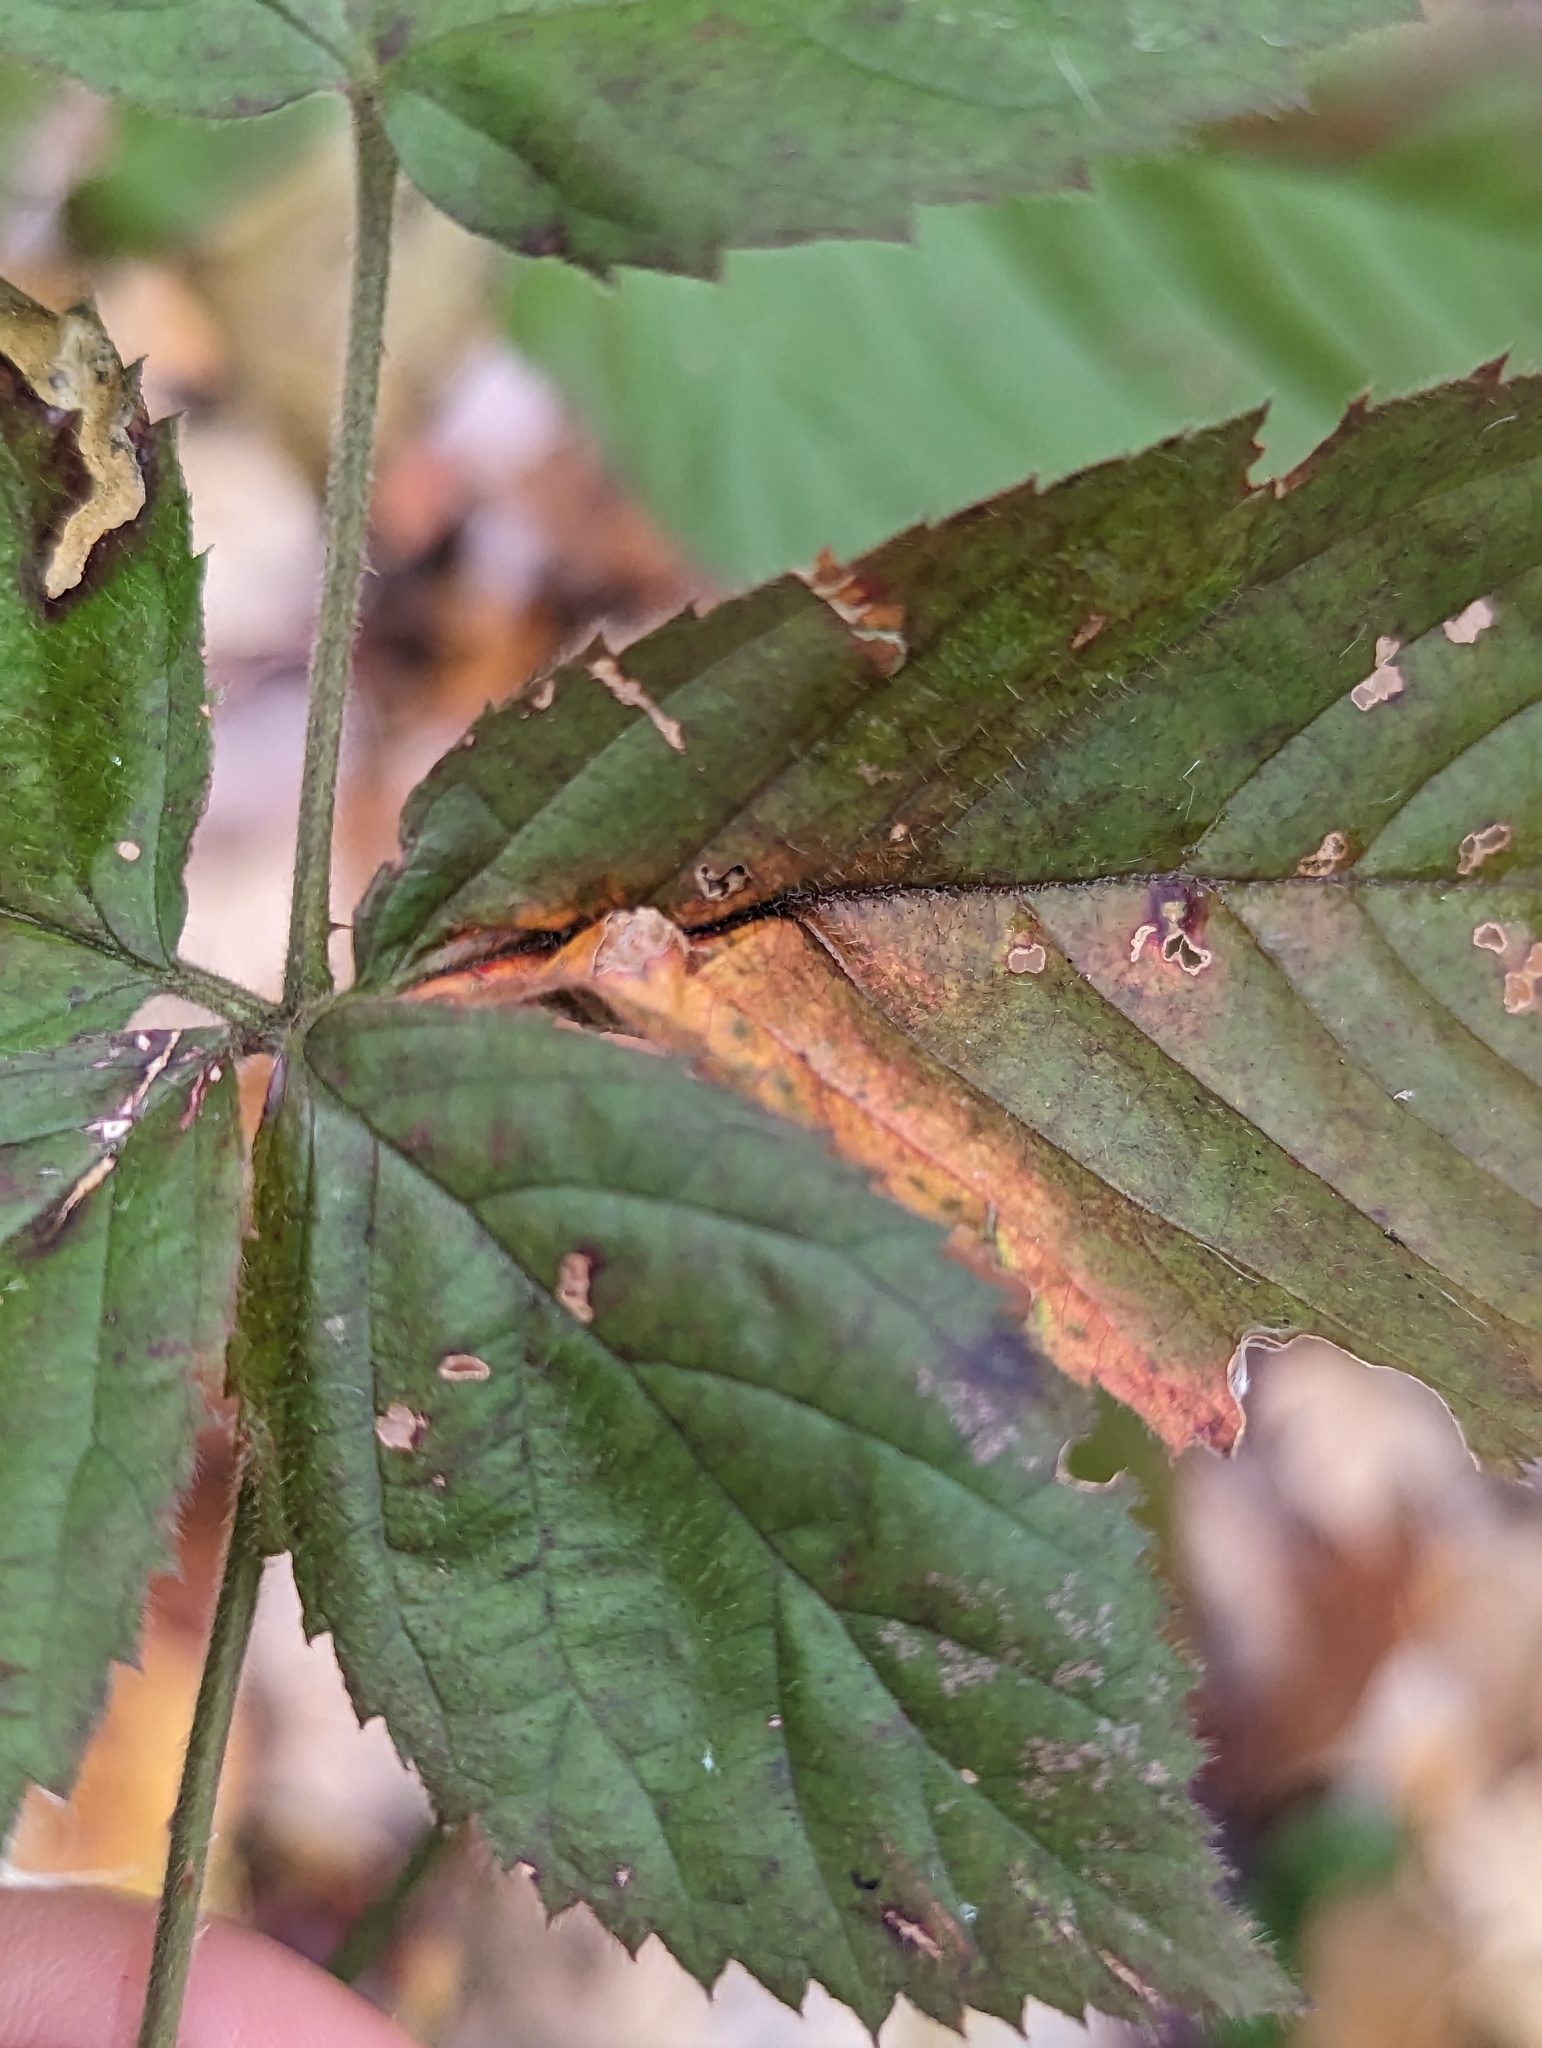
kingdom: Animalia
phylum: Arthropoda
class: Insecta
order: Diptera
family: Cecidomyiidae
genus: Neolasioptera
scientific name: Neolasioptera farinosa
